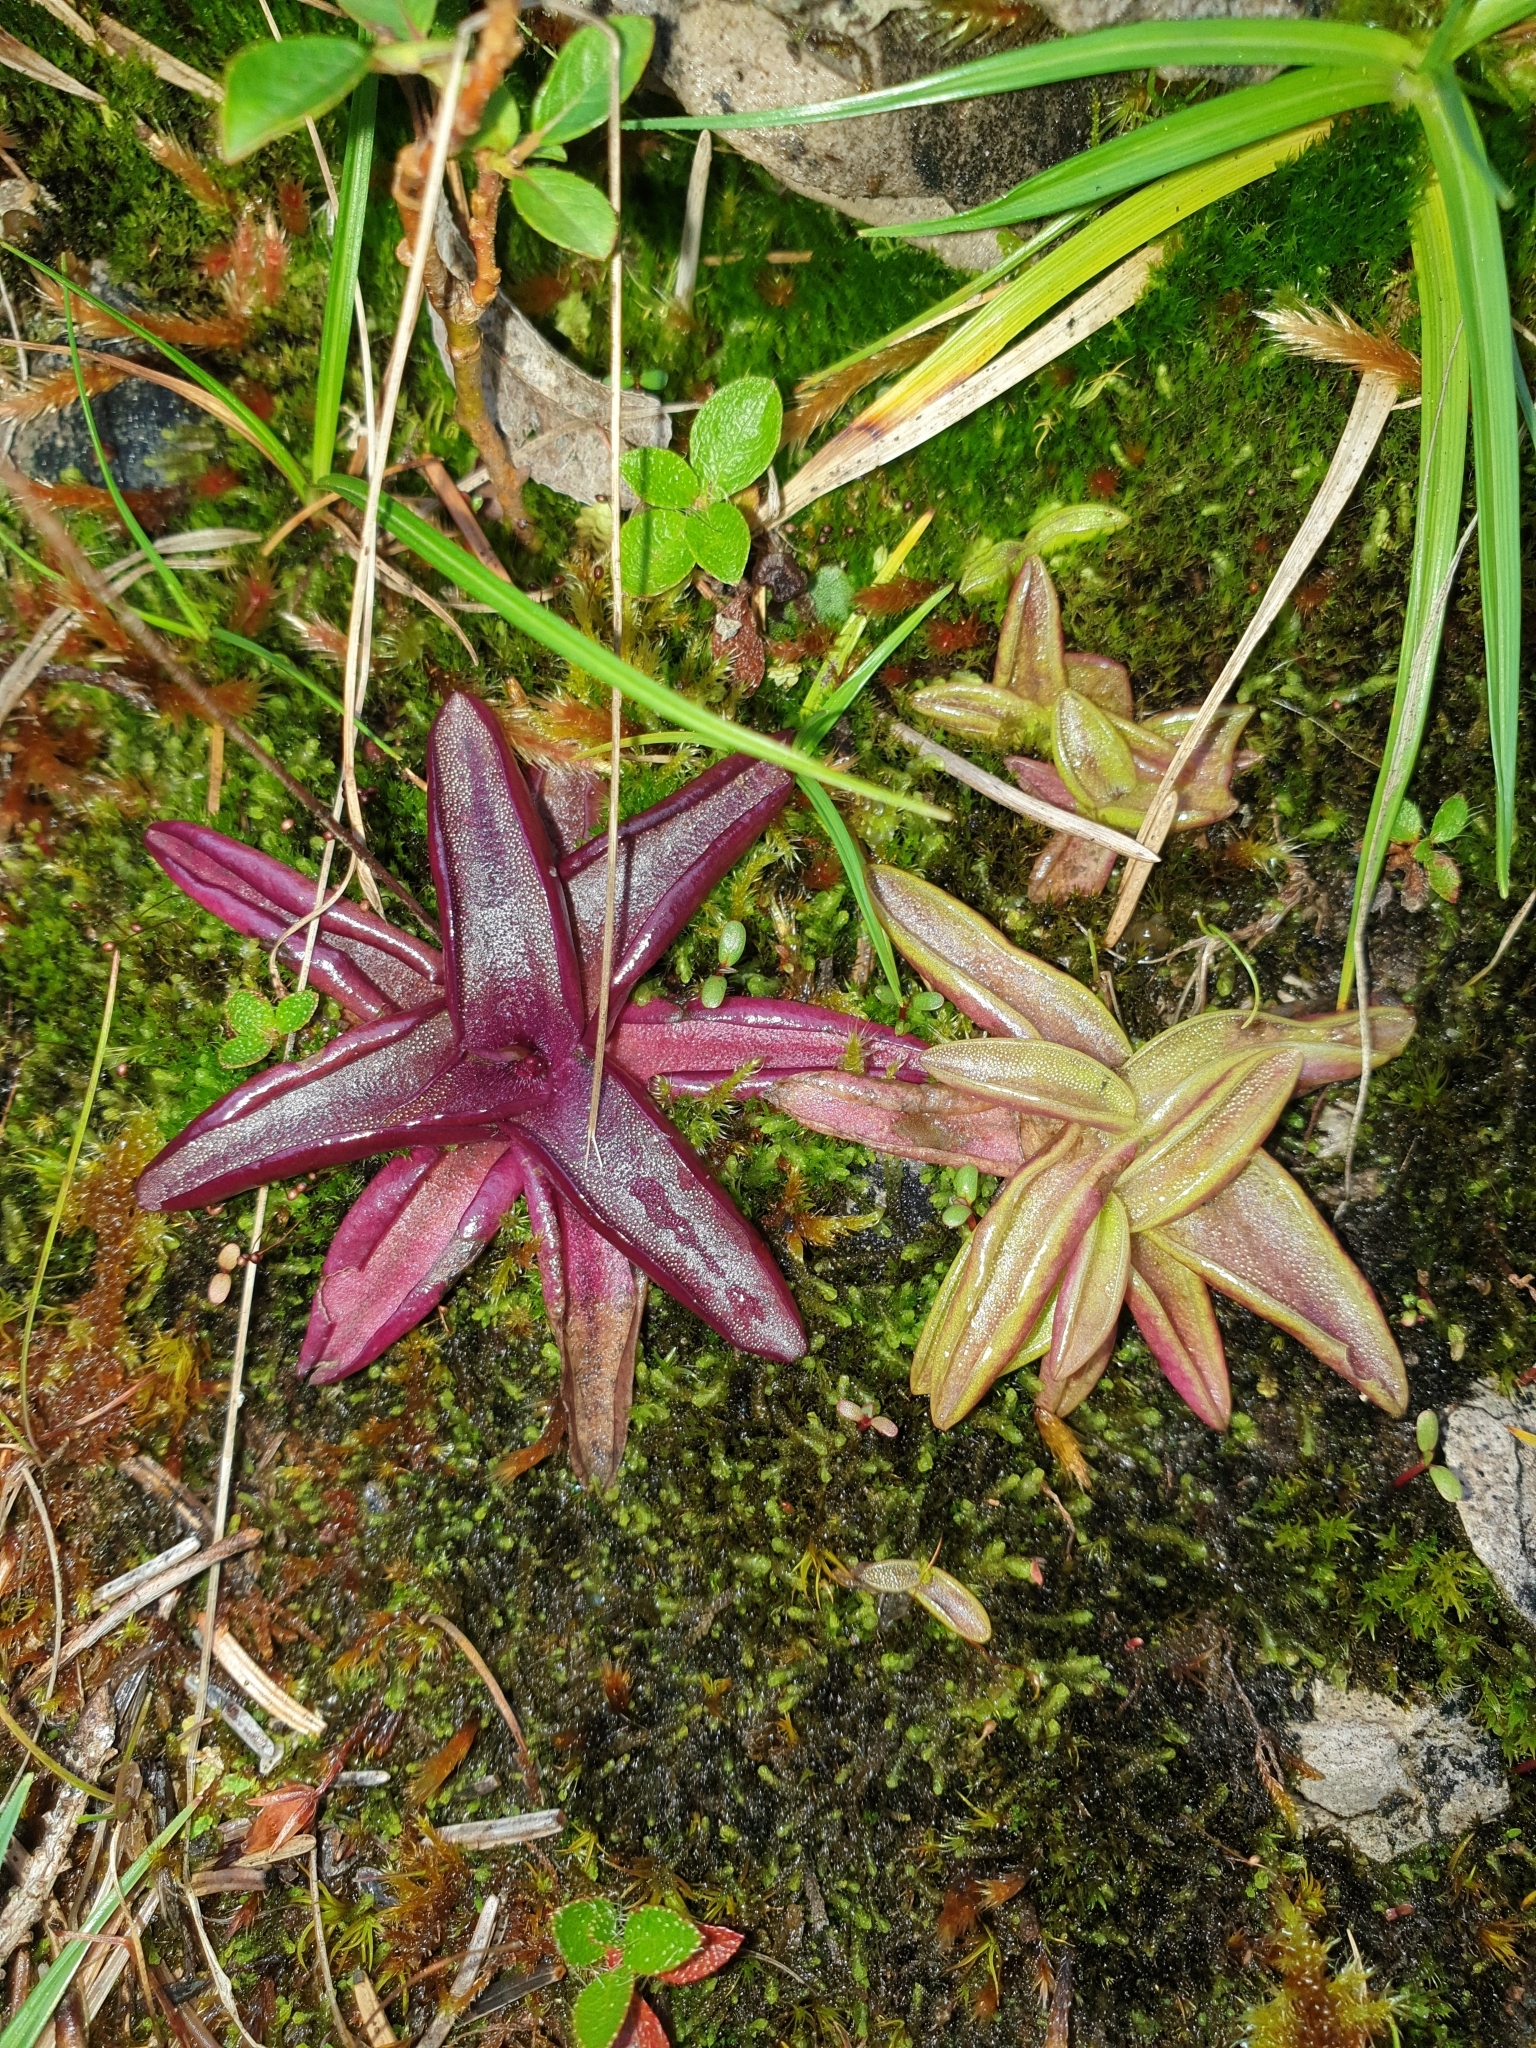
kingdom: Plantae
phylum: Tracheophyta
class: Magnoliopsida
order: Lamiales
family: Lentibulariaceae
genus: Pinguicula
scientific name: Pinguicula alpina
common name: Alpine butterwort
